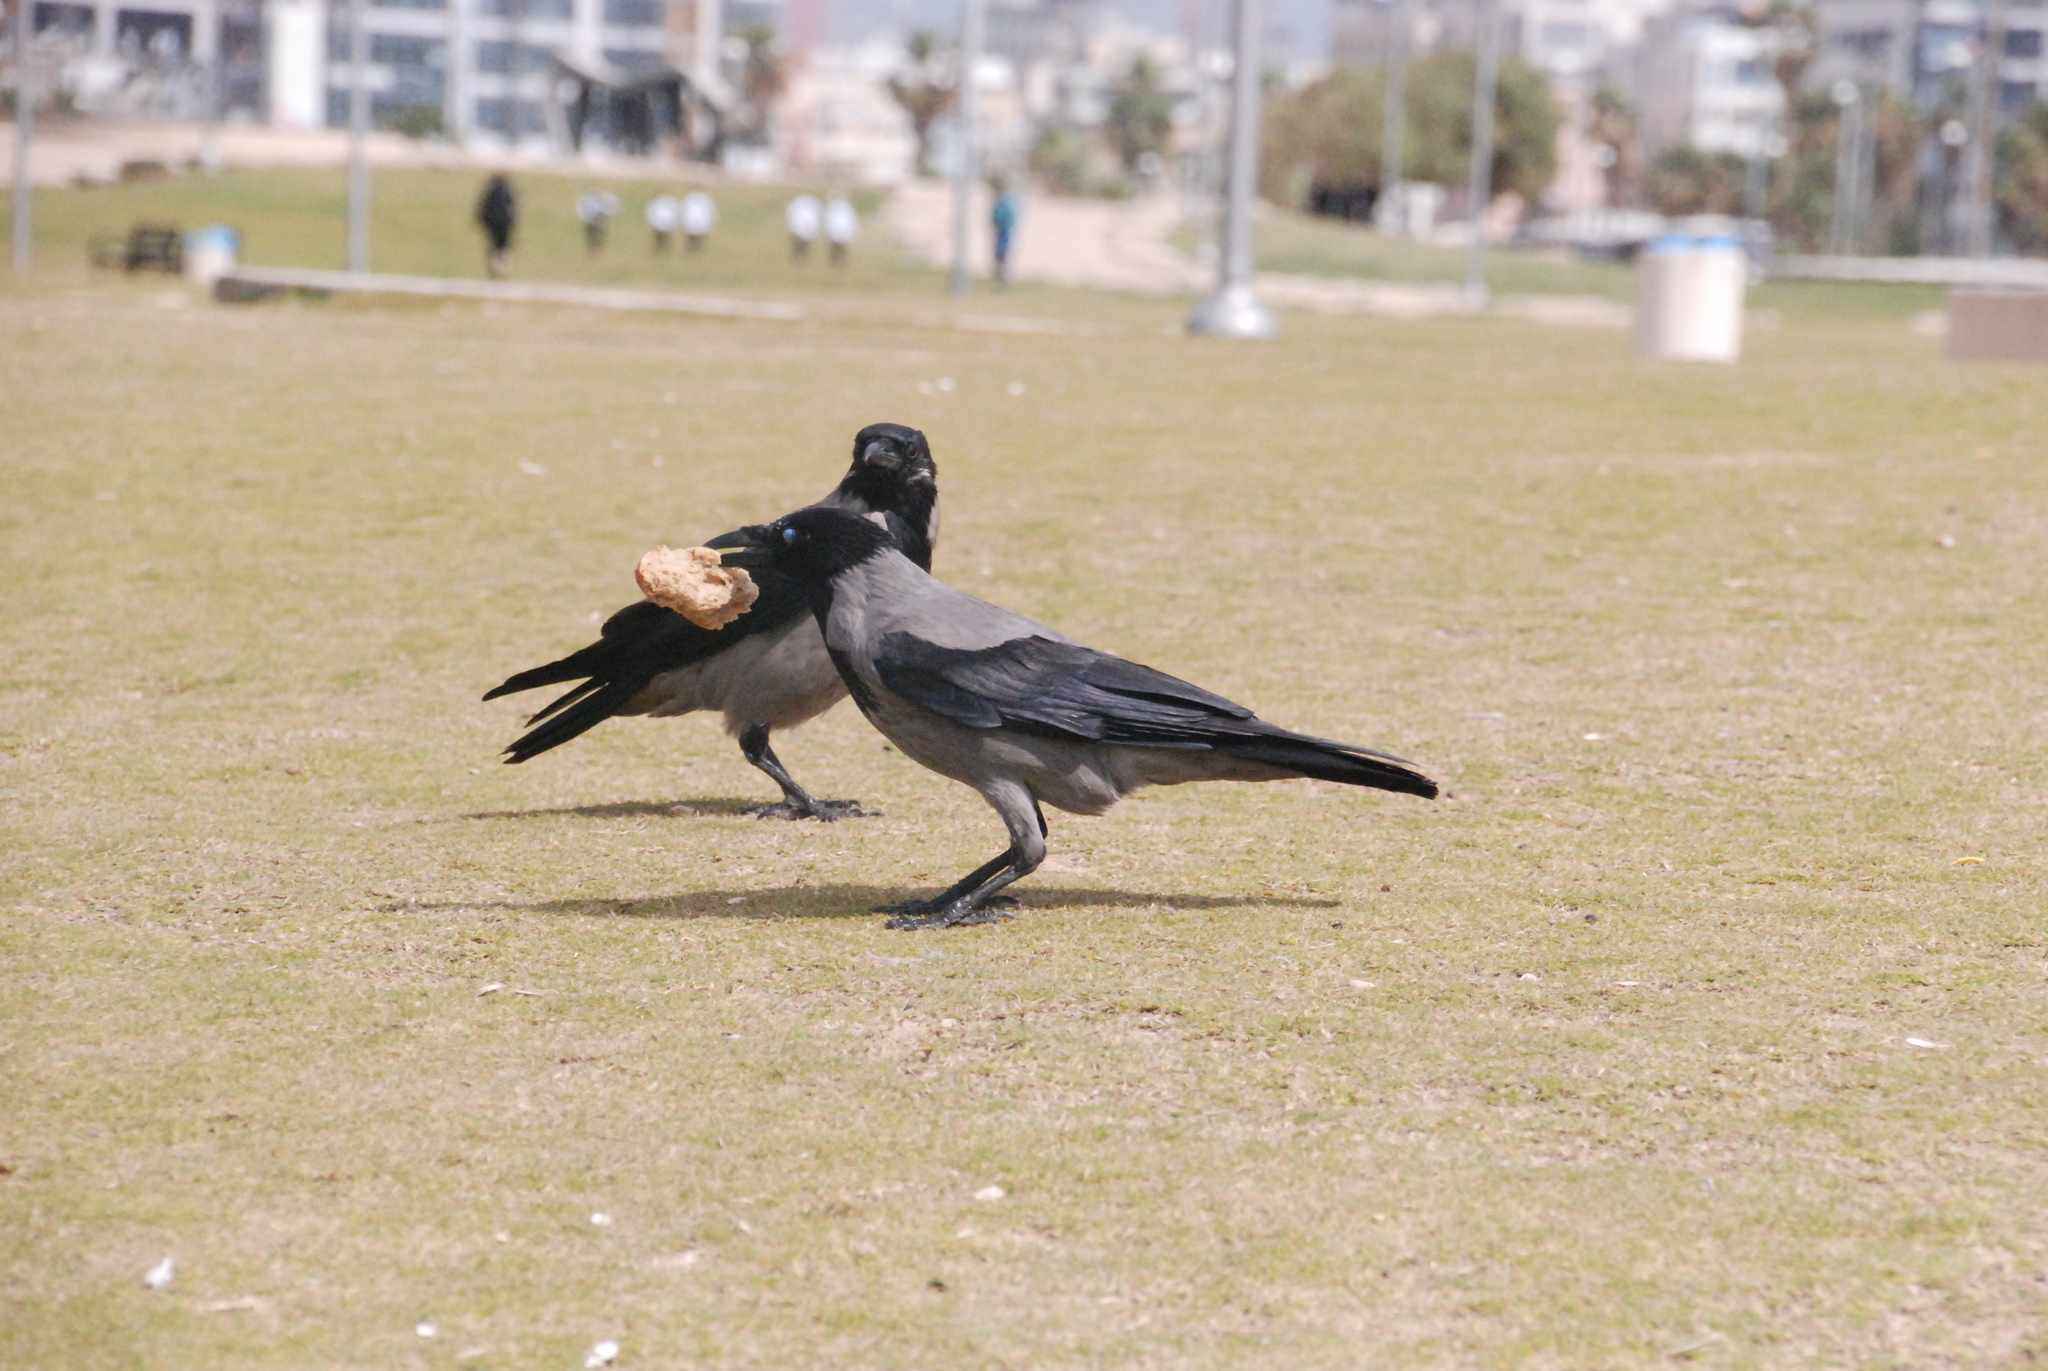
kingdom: Animalia
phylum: Chordata
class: Aves
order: Passeriformes
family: Corvidae
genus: Corvus
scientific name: Corvus cornix
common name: Hooded crow
